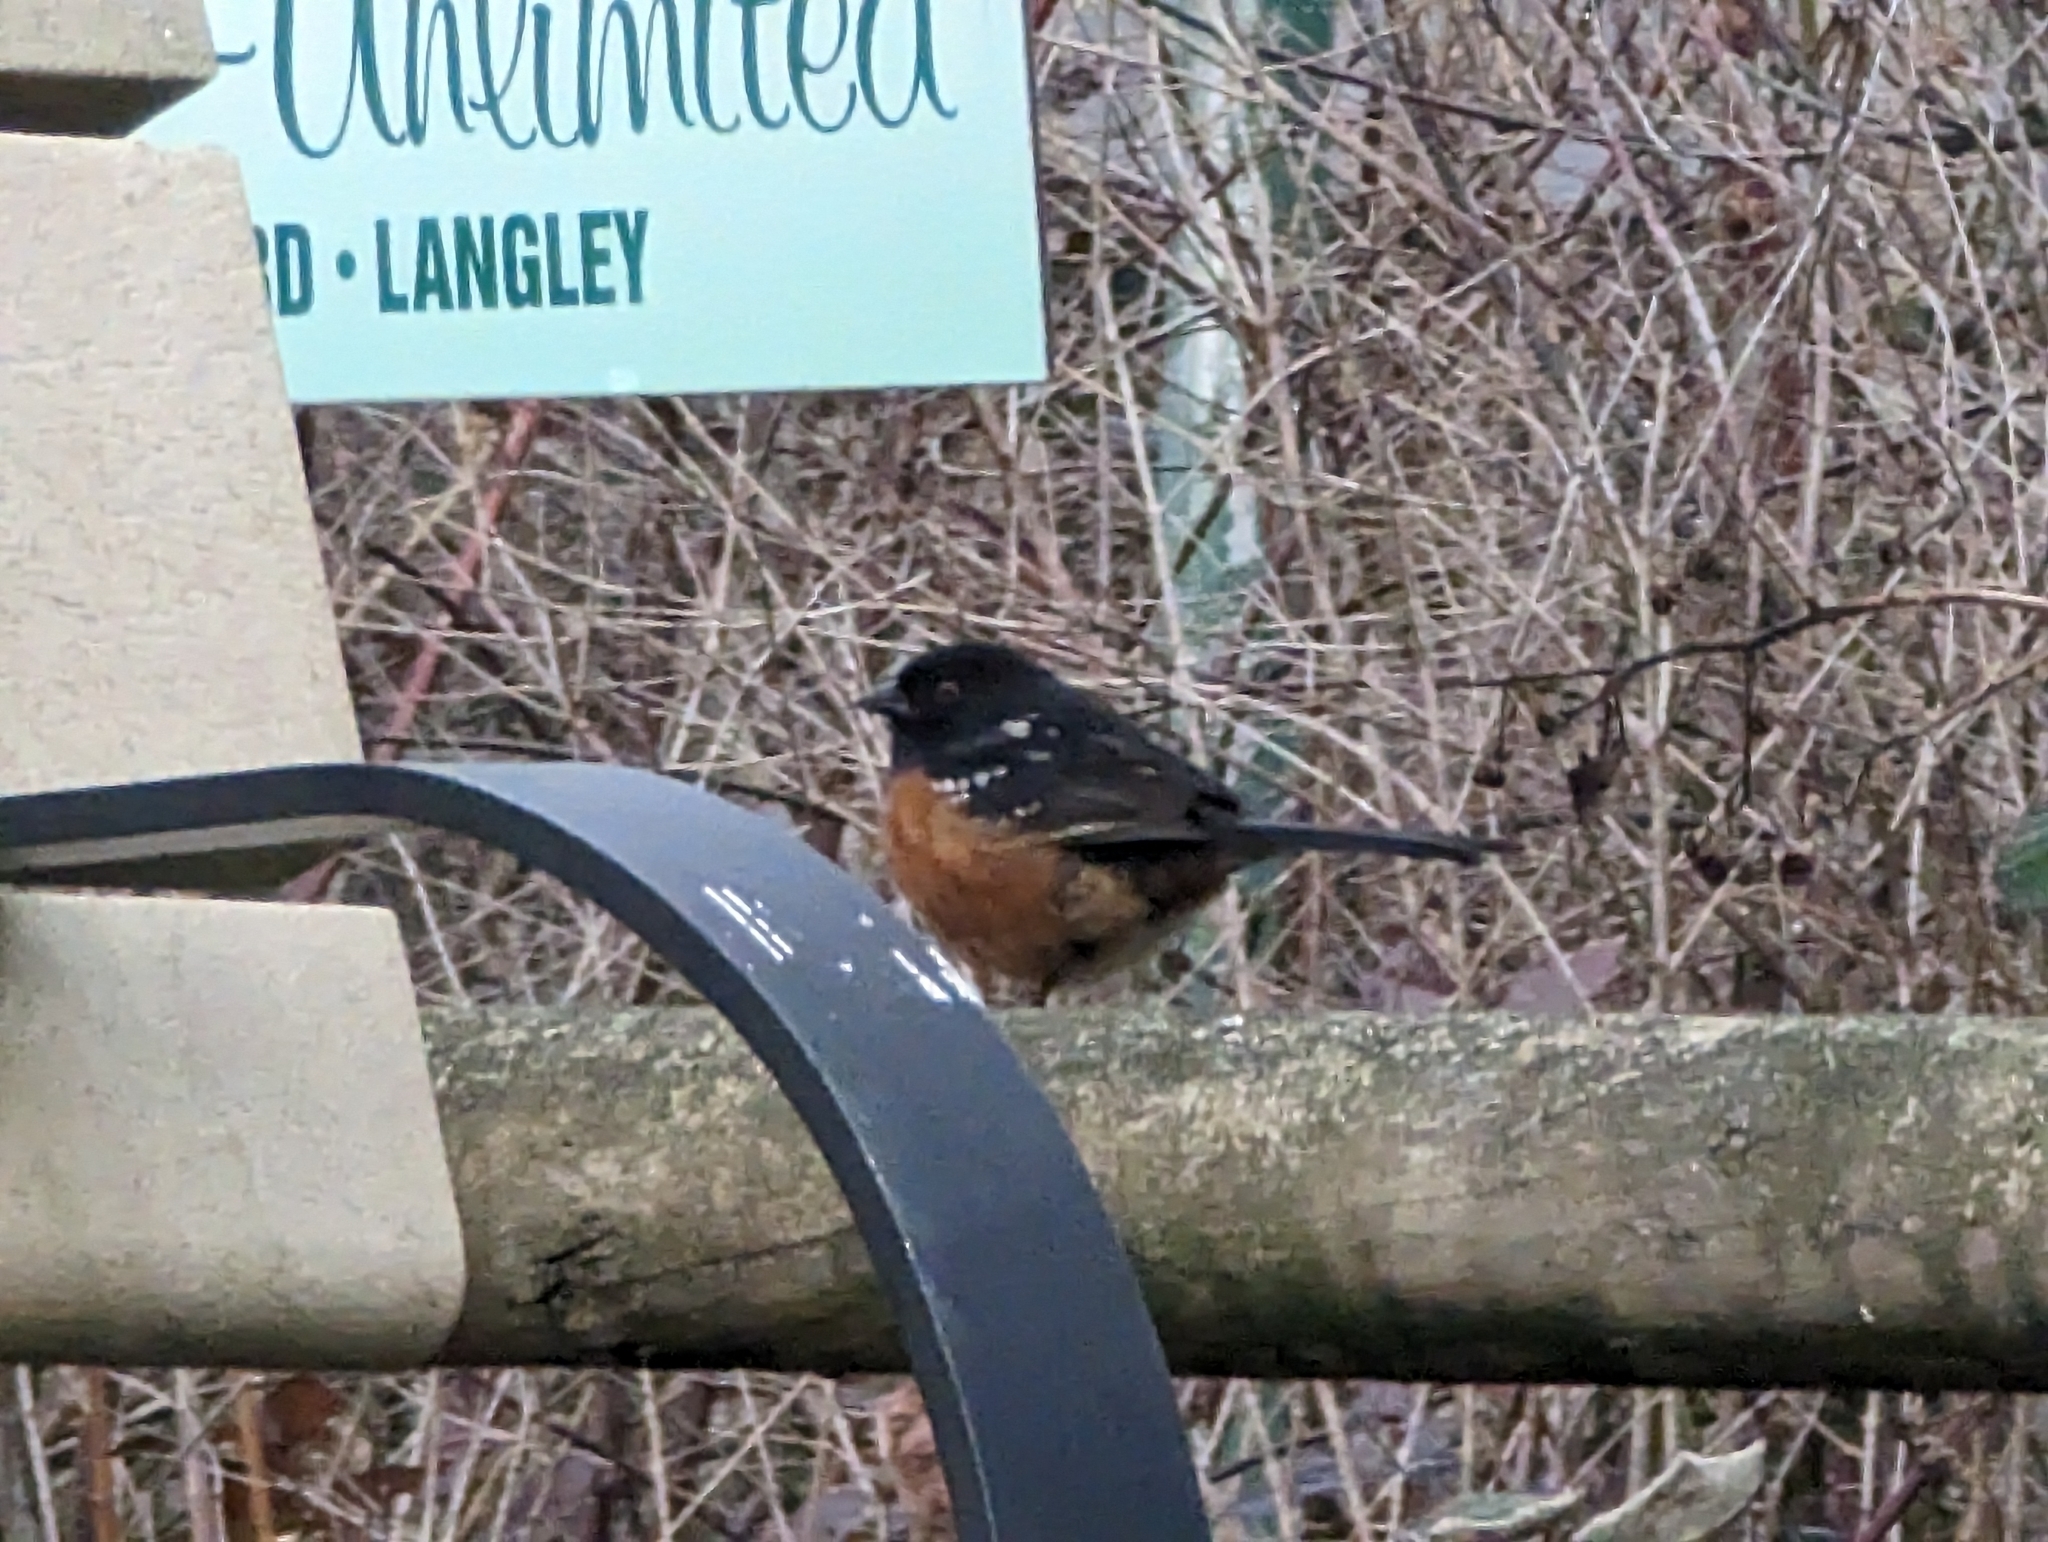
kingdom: Animalia
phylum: Chordata
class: Aves
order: Passeriformes
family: Passerellidae
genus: Pipilo
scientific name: Pipilo maculatus
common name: Spotted towhee
